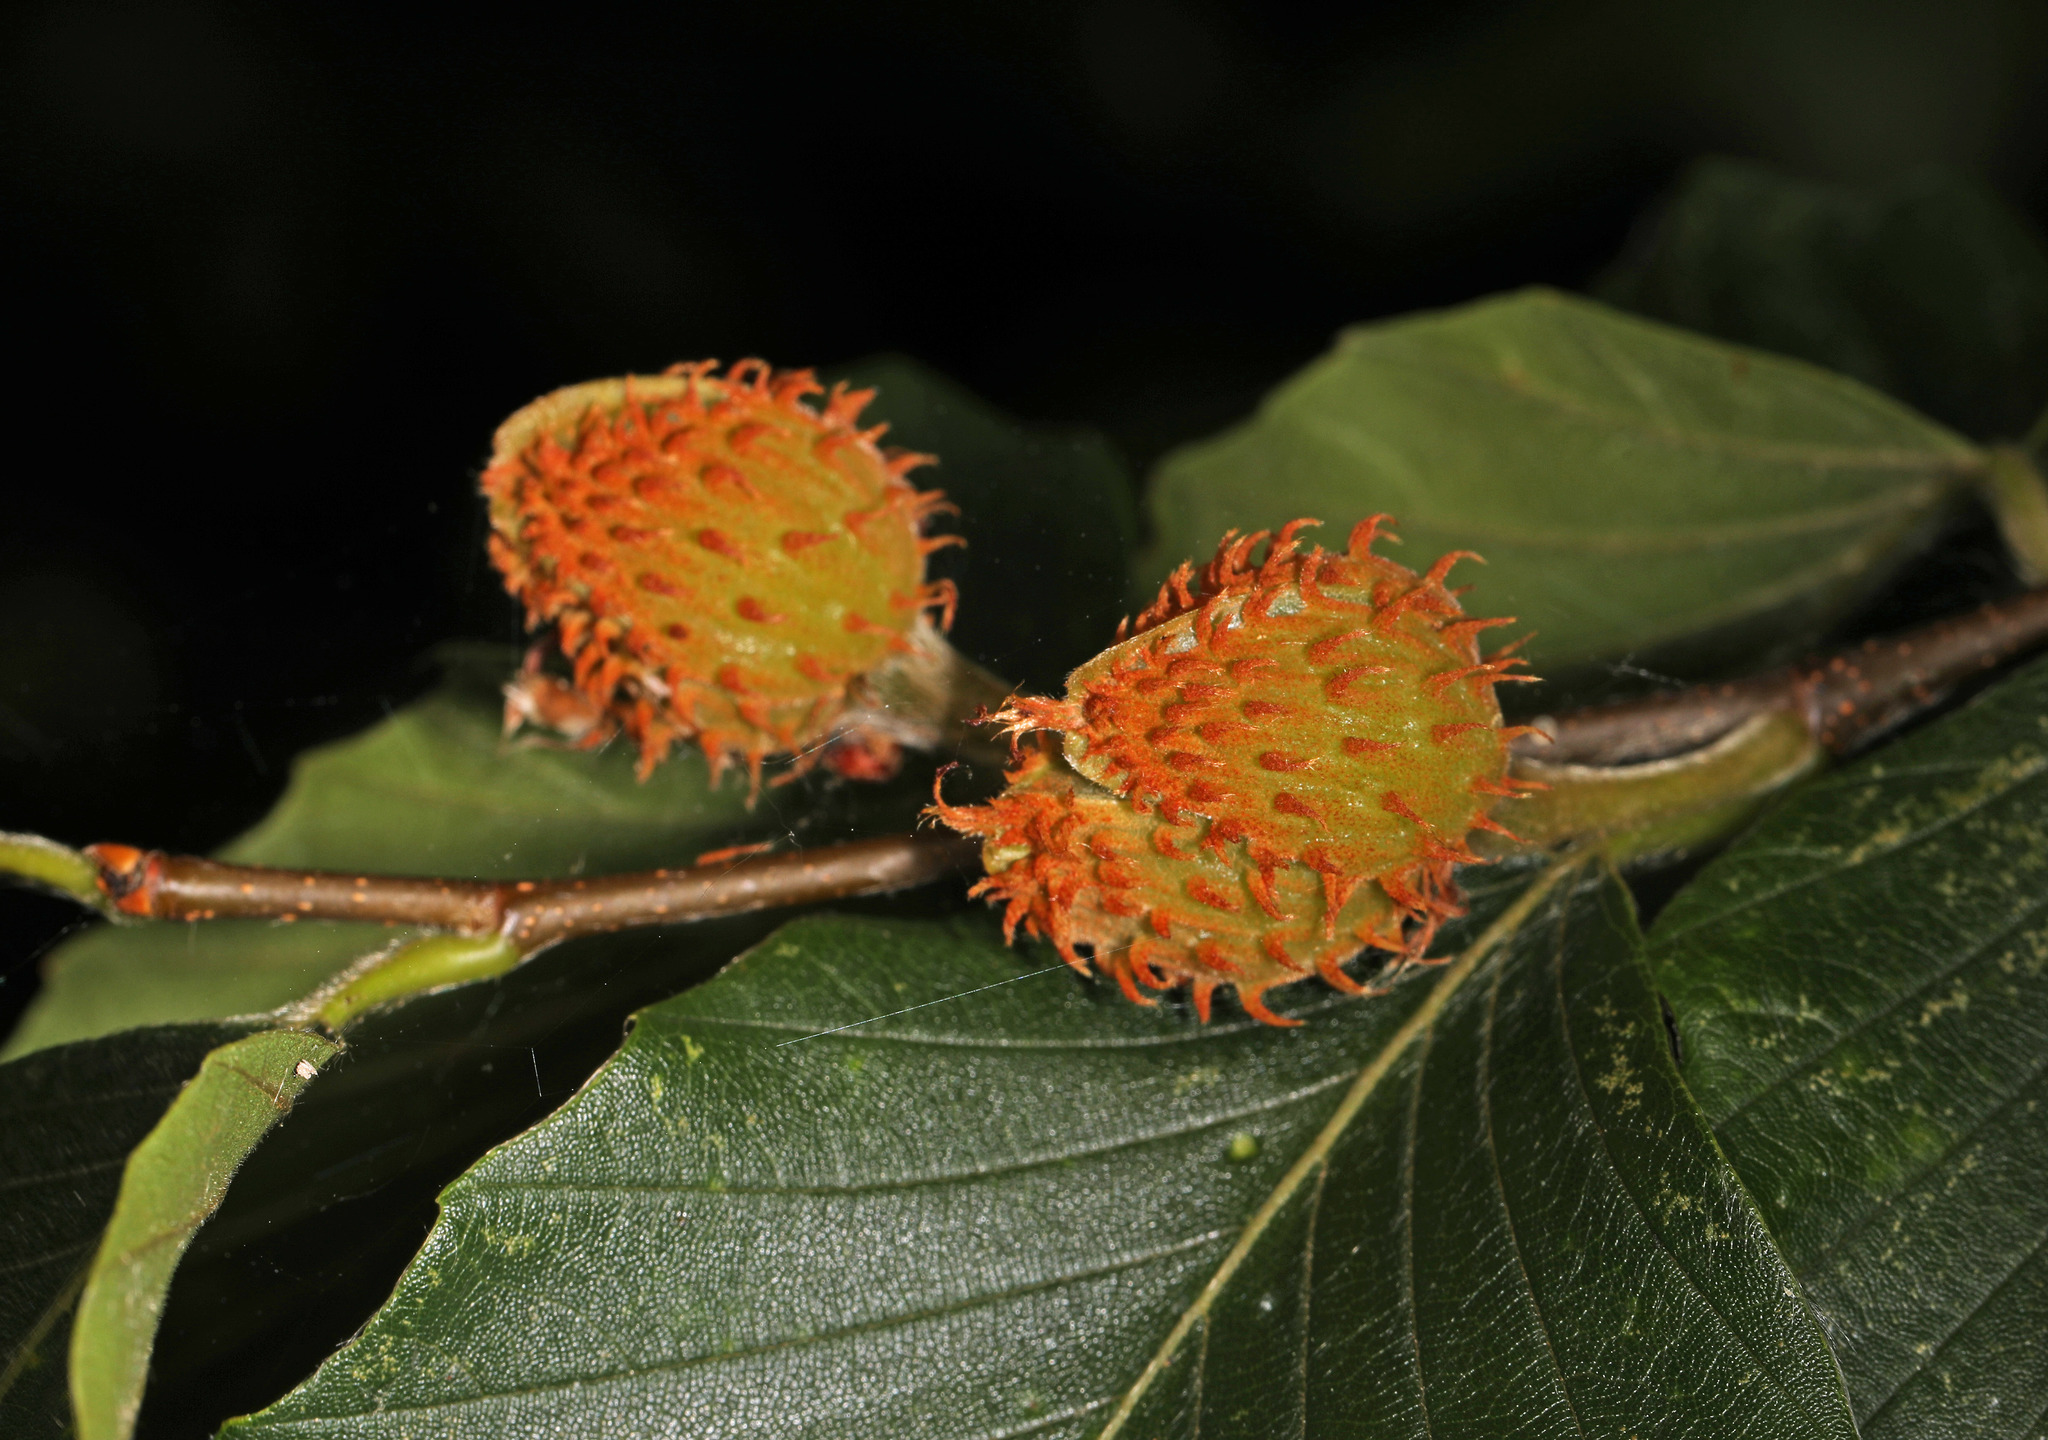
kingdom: Plantae
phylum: Tracheophyta
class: Magnoliopsida
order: Fagales
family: Fagaceae
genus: Fagus
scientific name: Fagus grandifolia
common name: American beech
